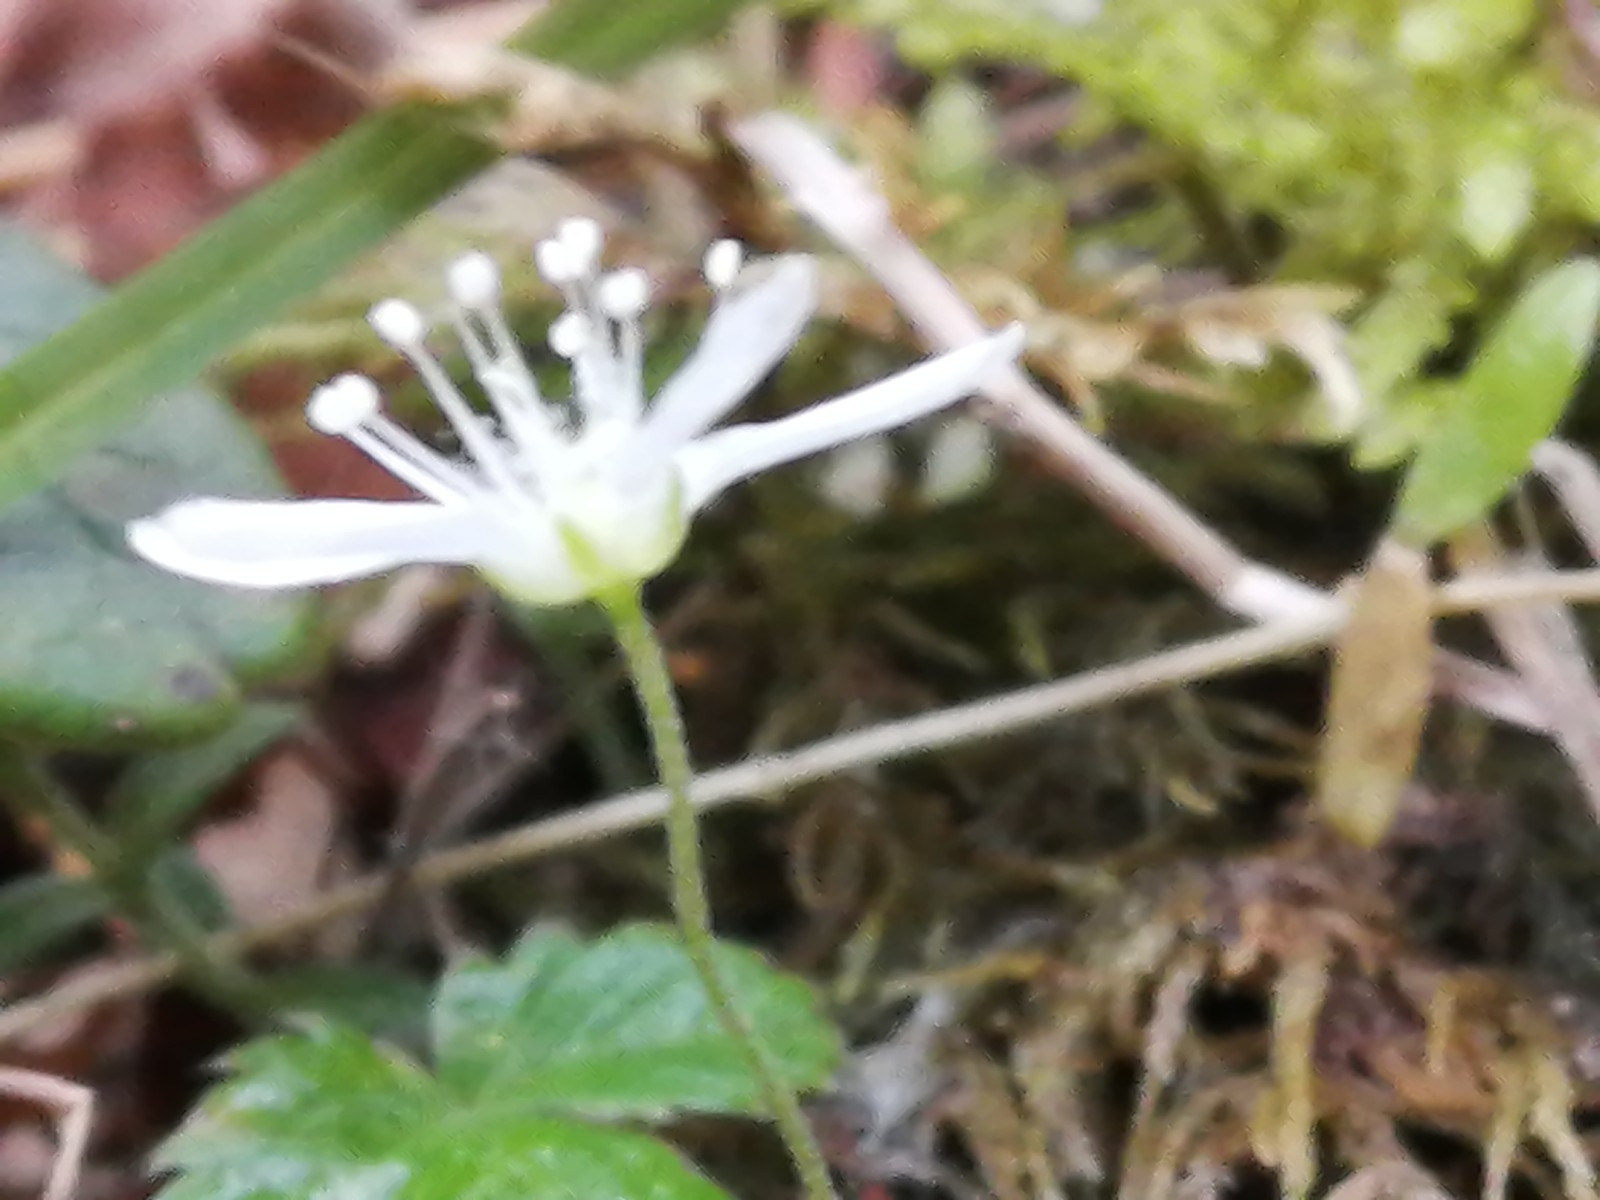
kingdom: Plantae
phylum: Tracheophyta
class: Magnoliopsida
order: Caryophyllales
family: Caryophyllaceae
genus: Moehringia
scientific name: Moehringia lateriflora
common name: Blunt-leaved sandwort
